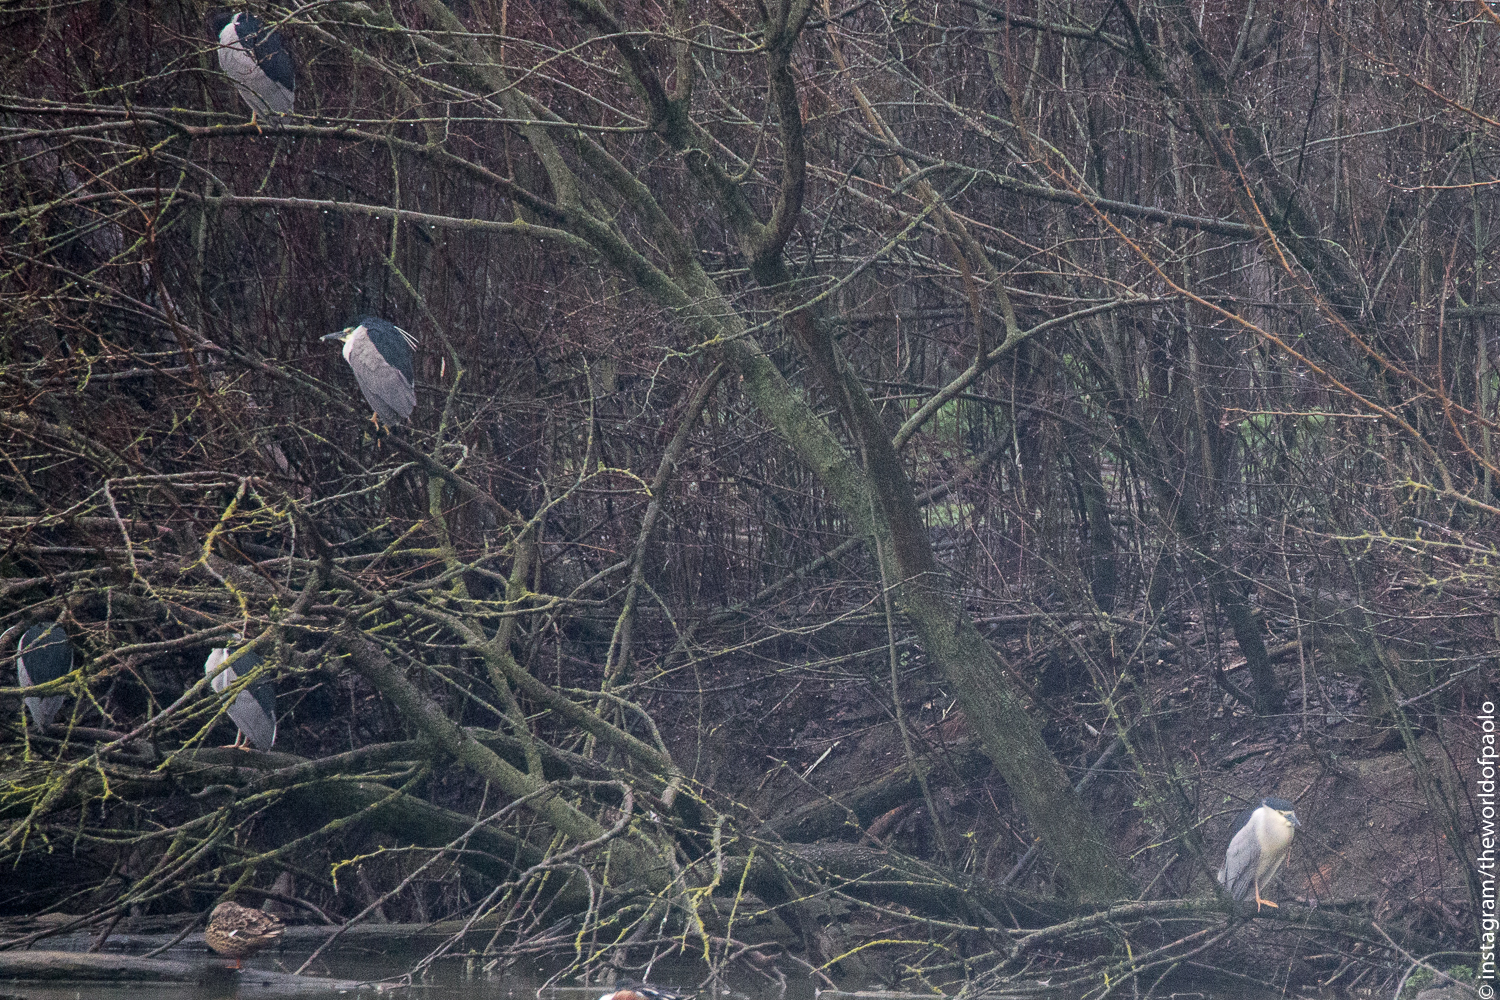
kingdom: Animalia
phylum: Chordata
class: Aves
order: Pelecaniformes
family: Ardeidae
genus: Nycticorax
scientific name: Nycticorax nycticorax
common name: Black-crowned night heron
